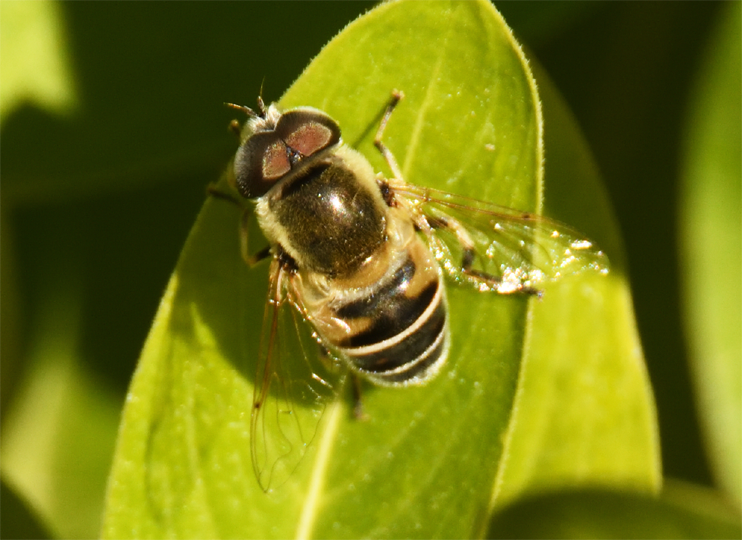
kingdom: Animalia
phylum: Arthropoda
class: Insecta
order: Diptera
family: Syrphidae
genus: Eristalis
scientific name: Eristalis stipator
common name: Yellow-shouldered drone fly
